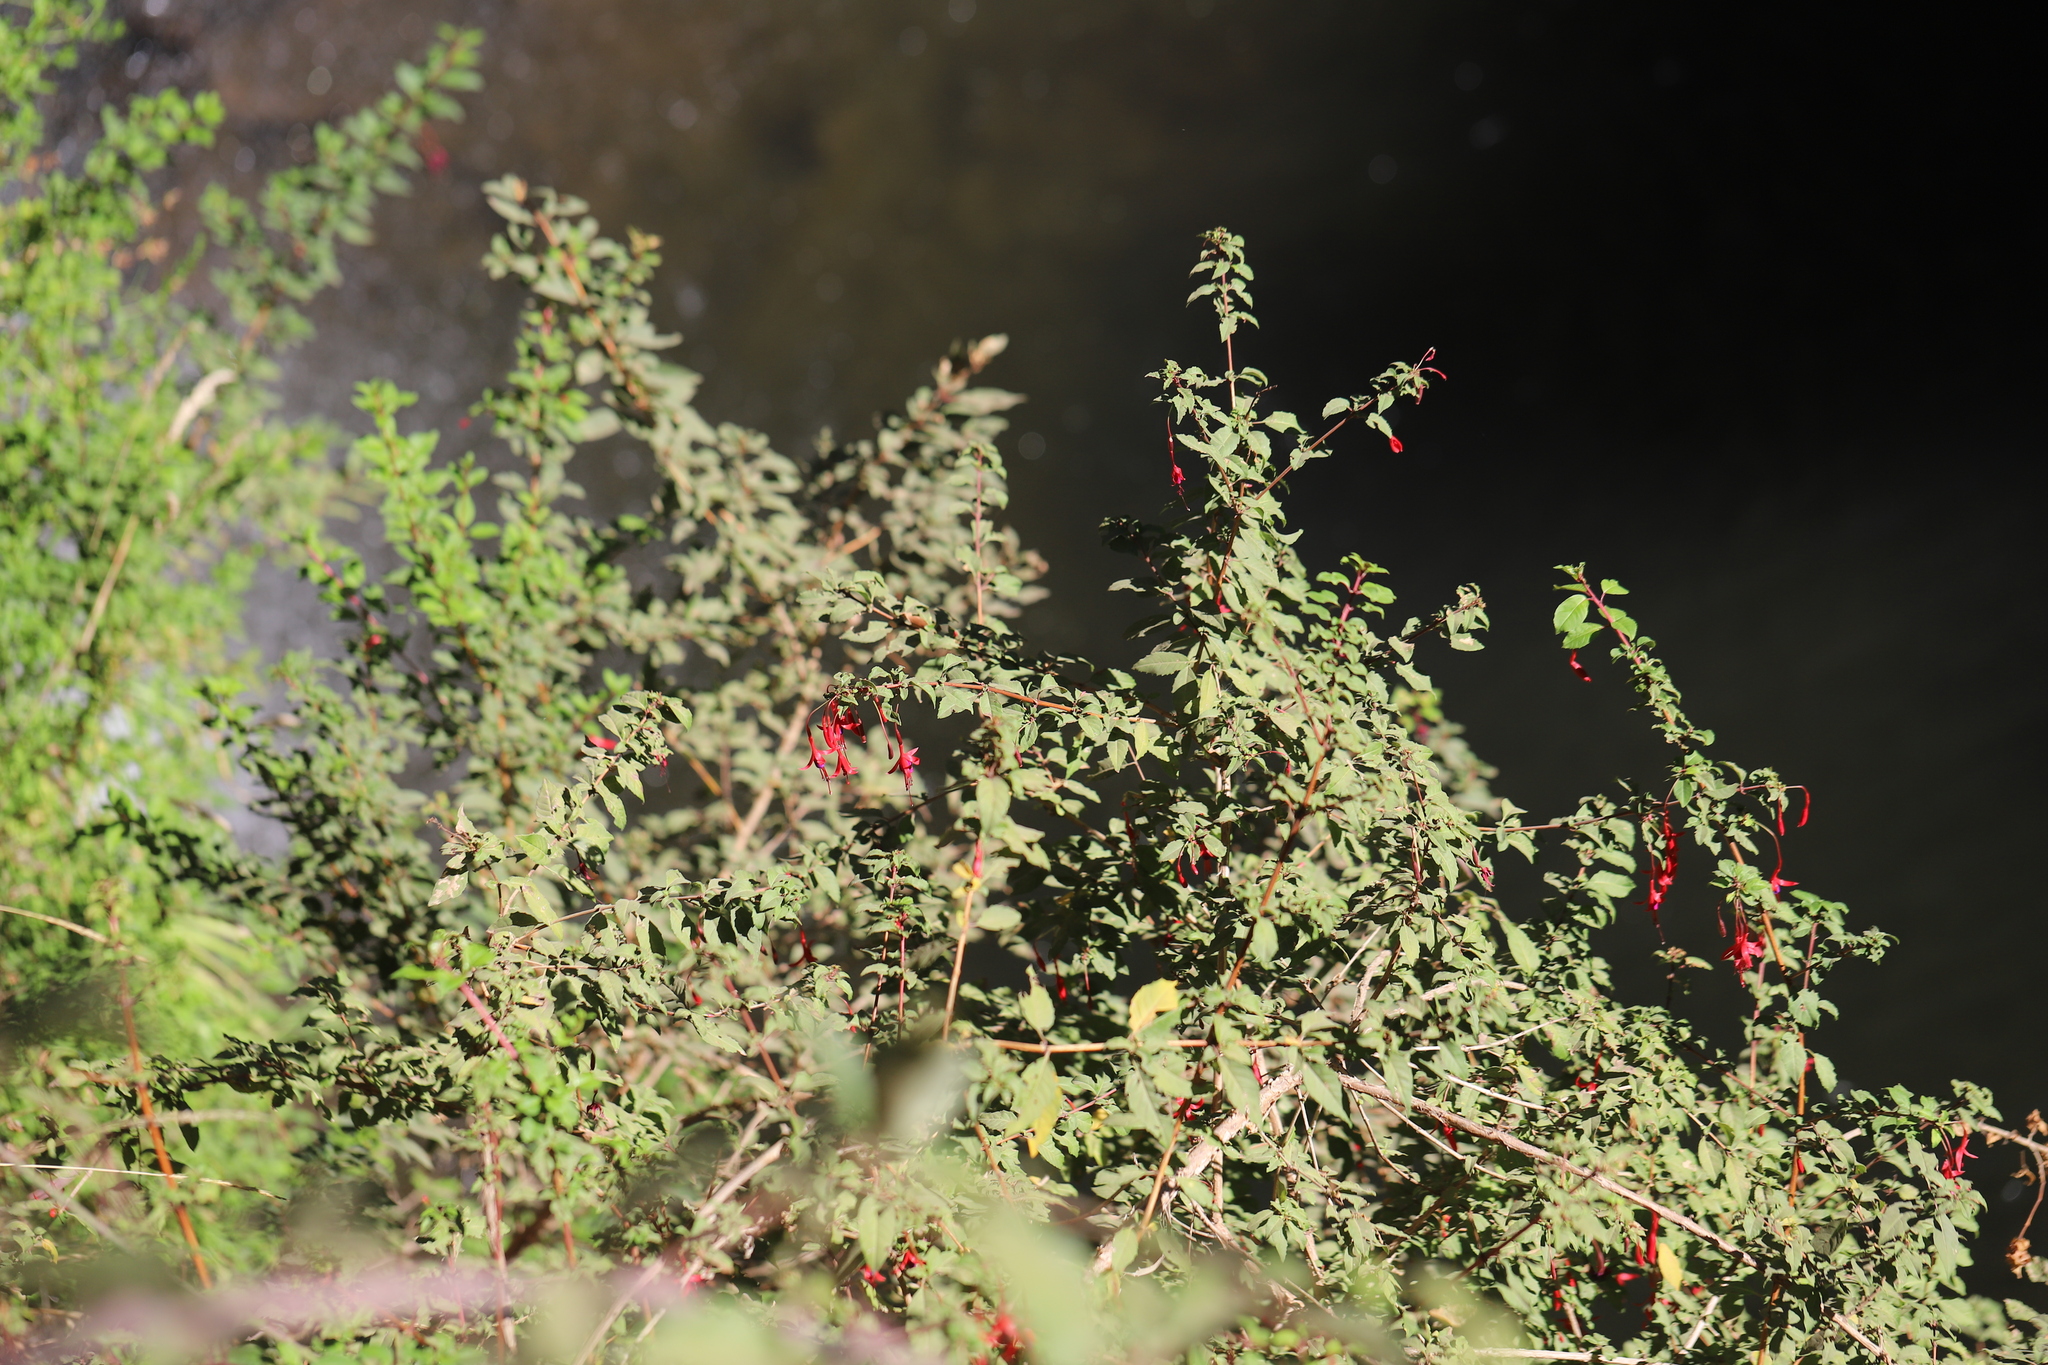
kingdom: Plantae
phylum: Tracheophyta
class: Magnoliopsida
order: Myrtales
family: Onagraceae
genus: Fuchsia
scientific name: Fuchsia magellanica
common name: Hardy fuchsia
